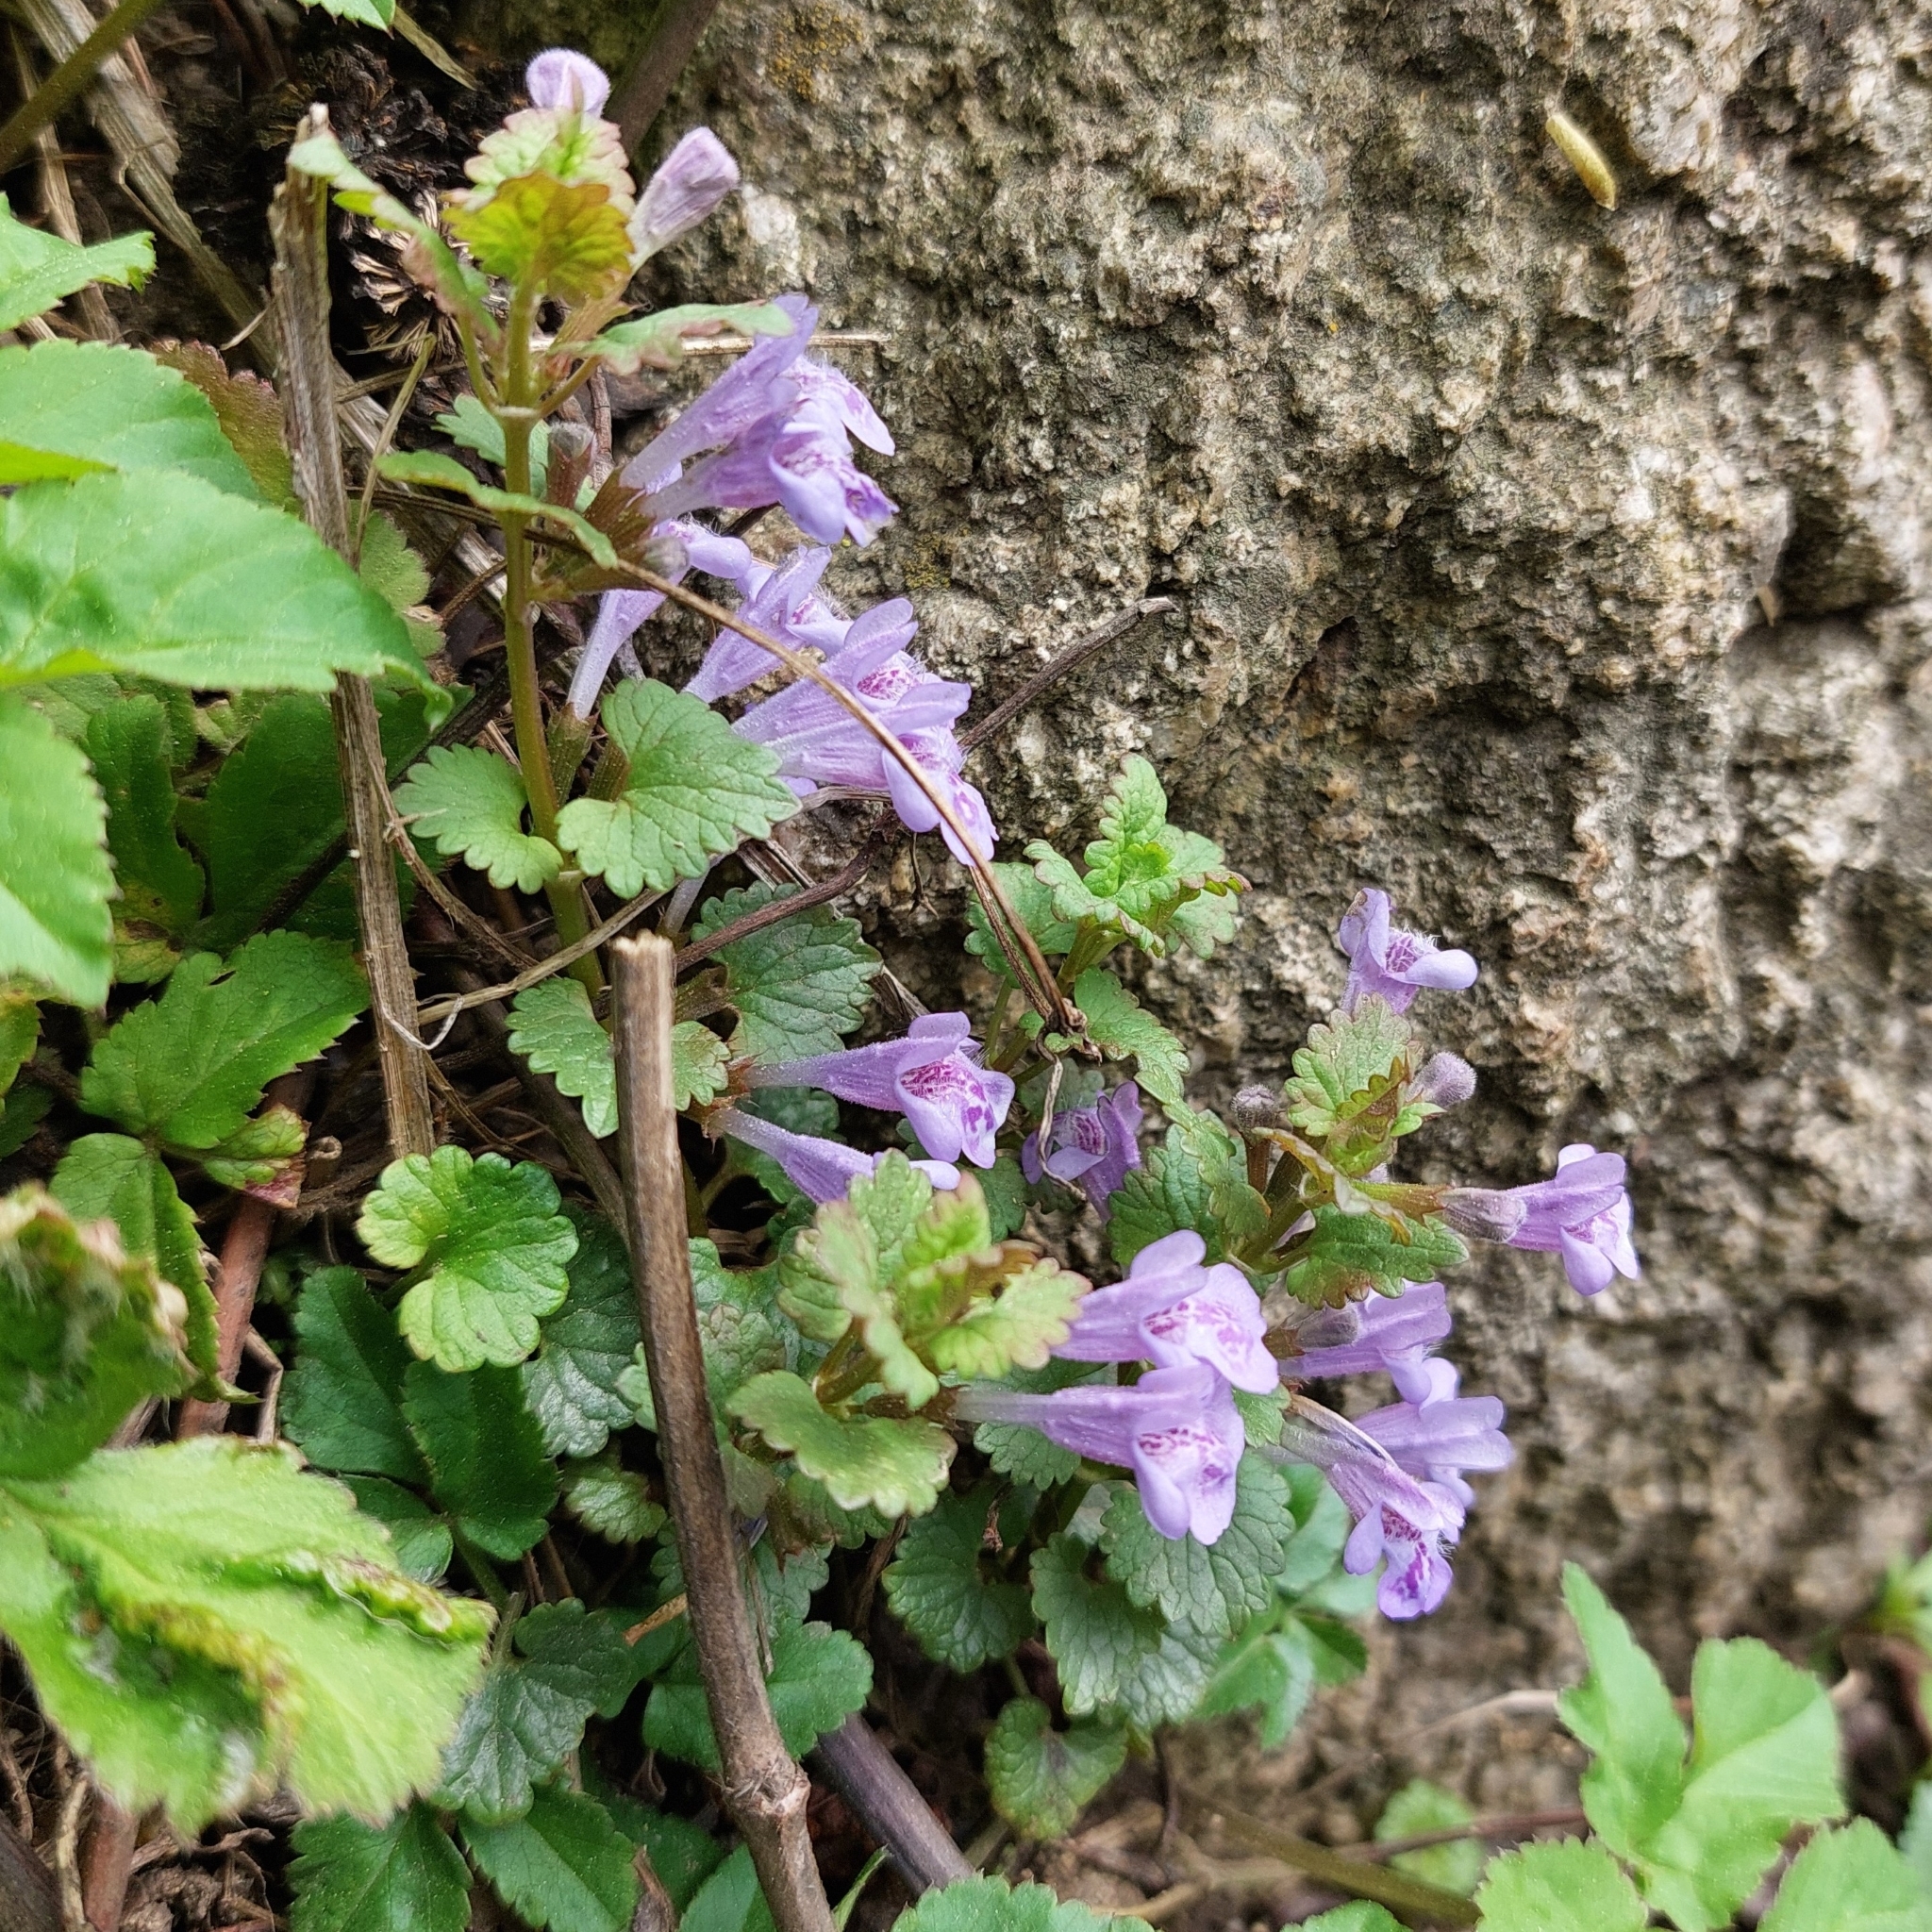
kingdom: Plantae
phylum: Tracheophyta
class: Magnoliopsida
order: Lamiales
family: Lamiaceae
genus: Glechoma
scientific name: Glechoma hederacea
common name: Ground ivy
